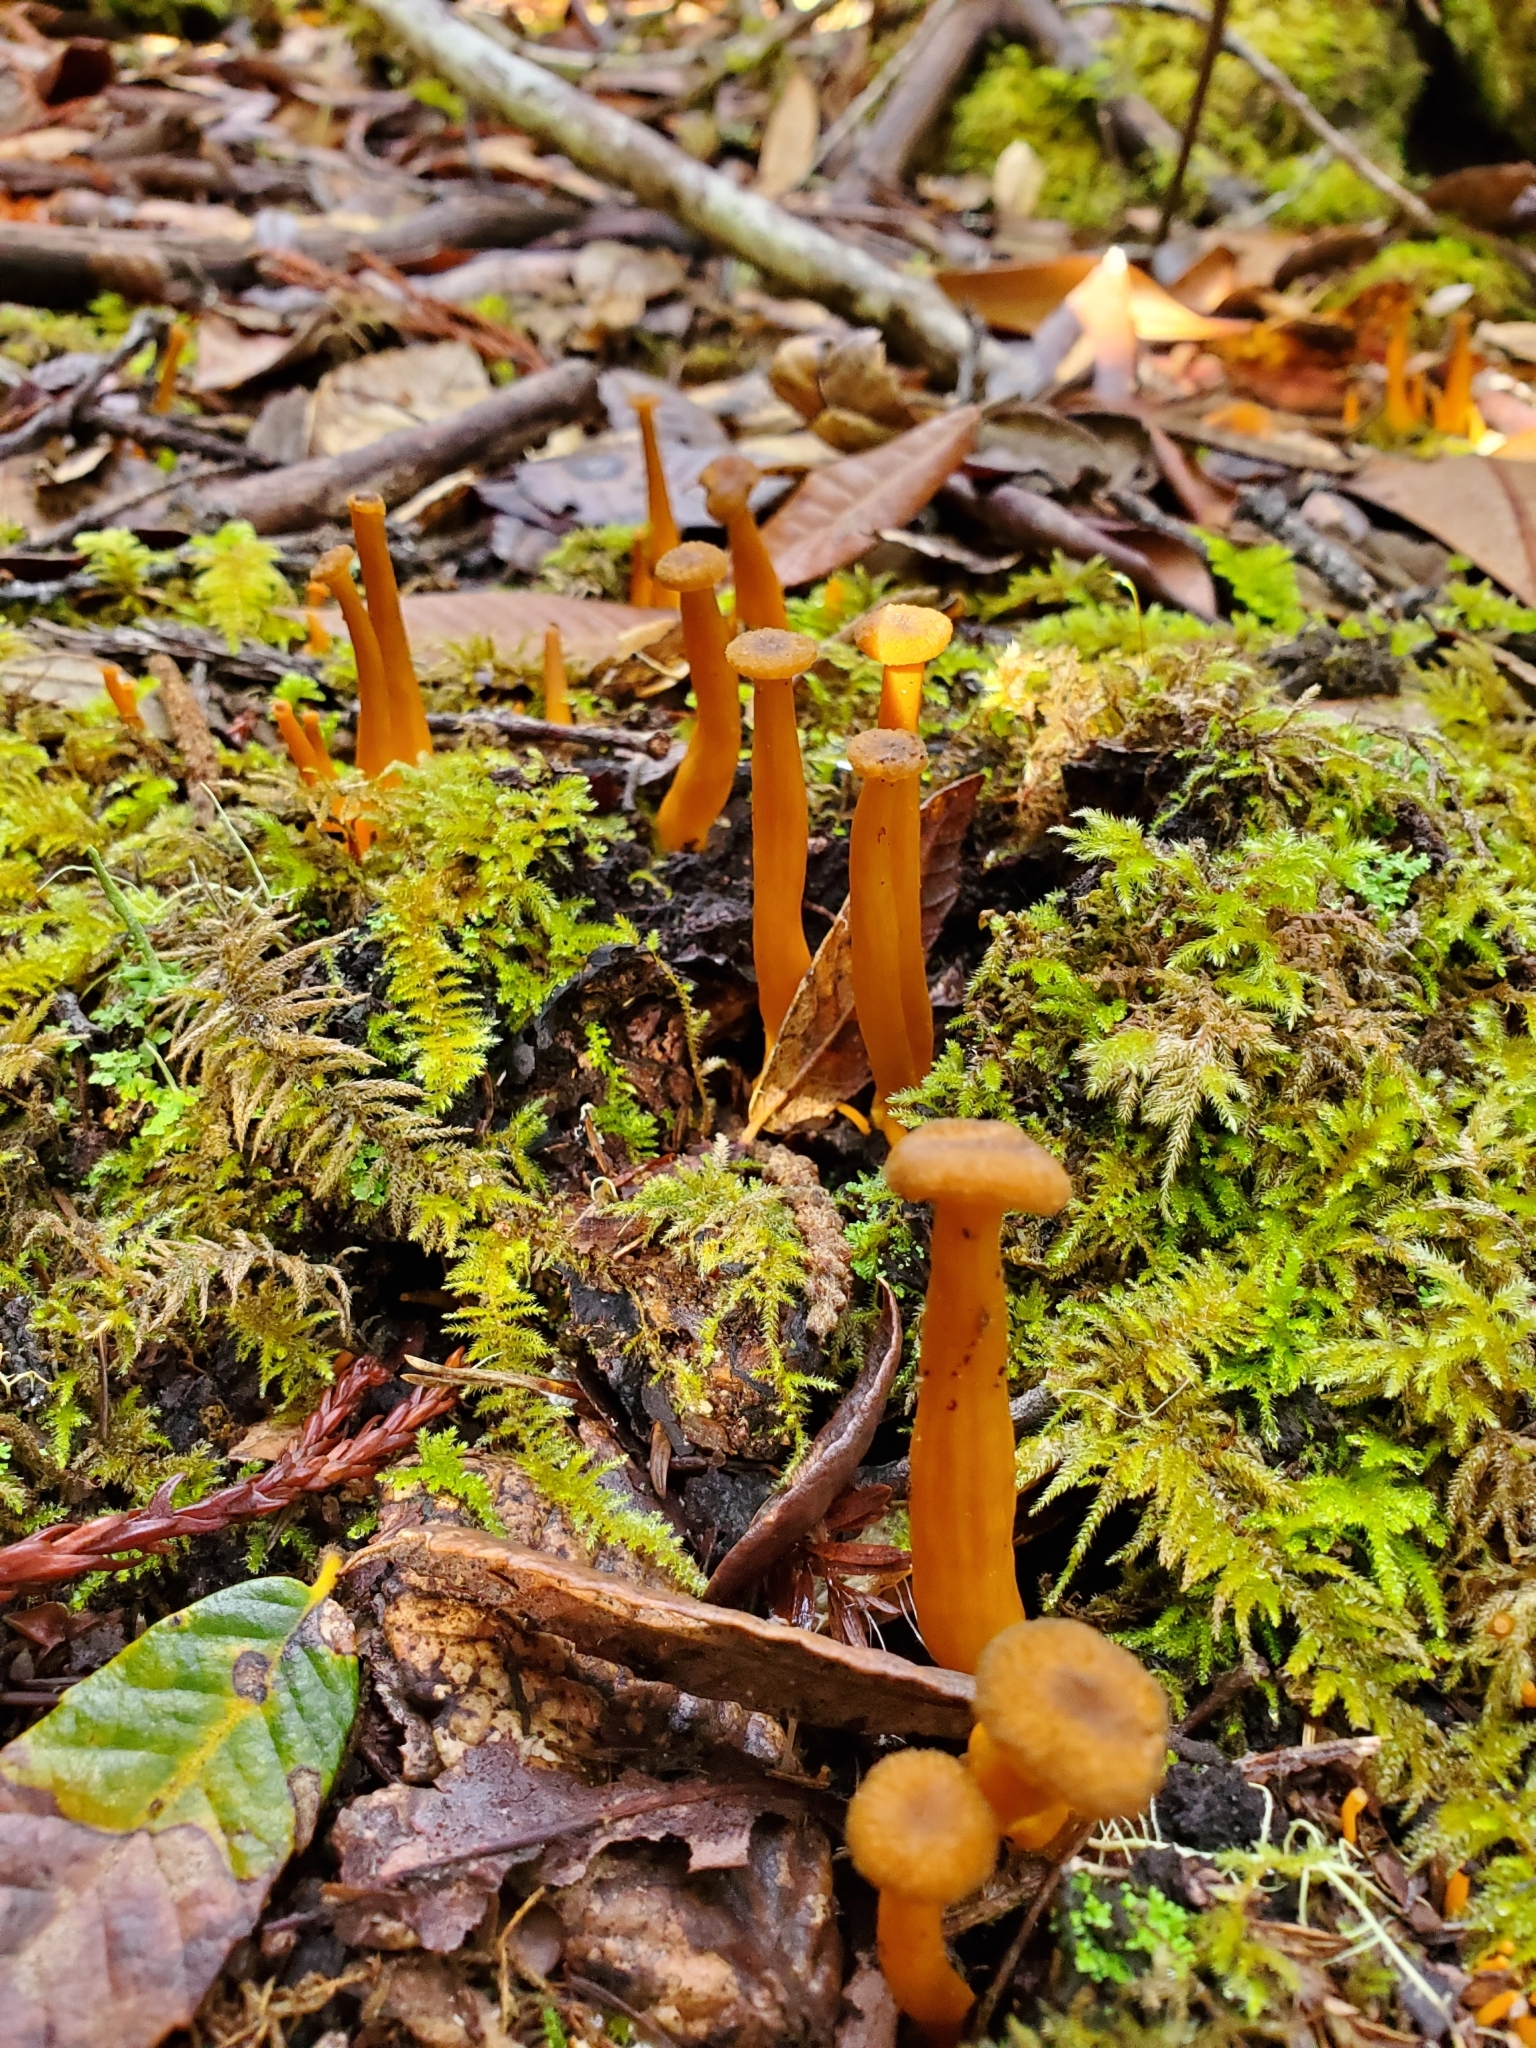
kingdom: Fungi
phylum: Basidiomycota
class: Agaricomycetes
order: Cantharellales
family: Hydnaceae
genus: Craterellus
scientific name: Craterellus tubaeformis
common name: Yellowfoot
